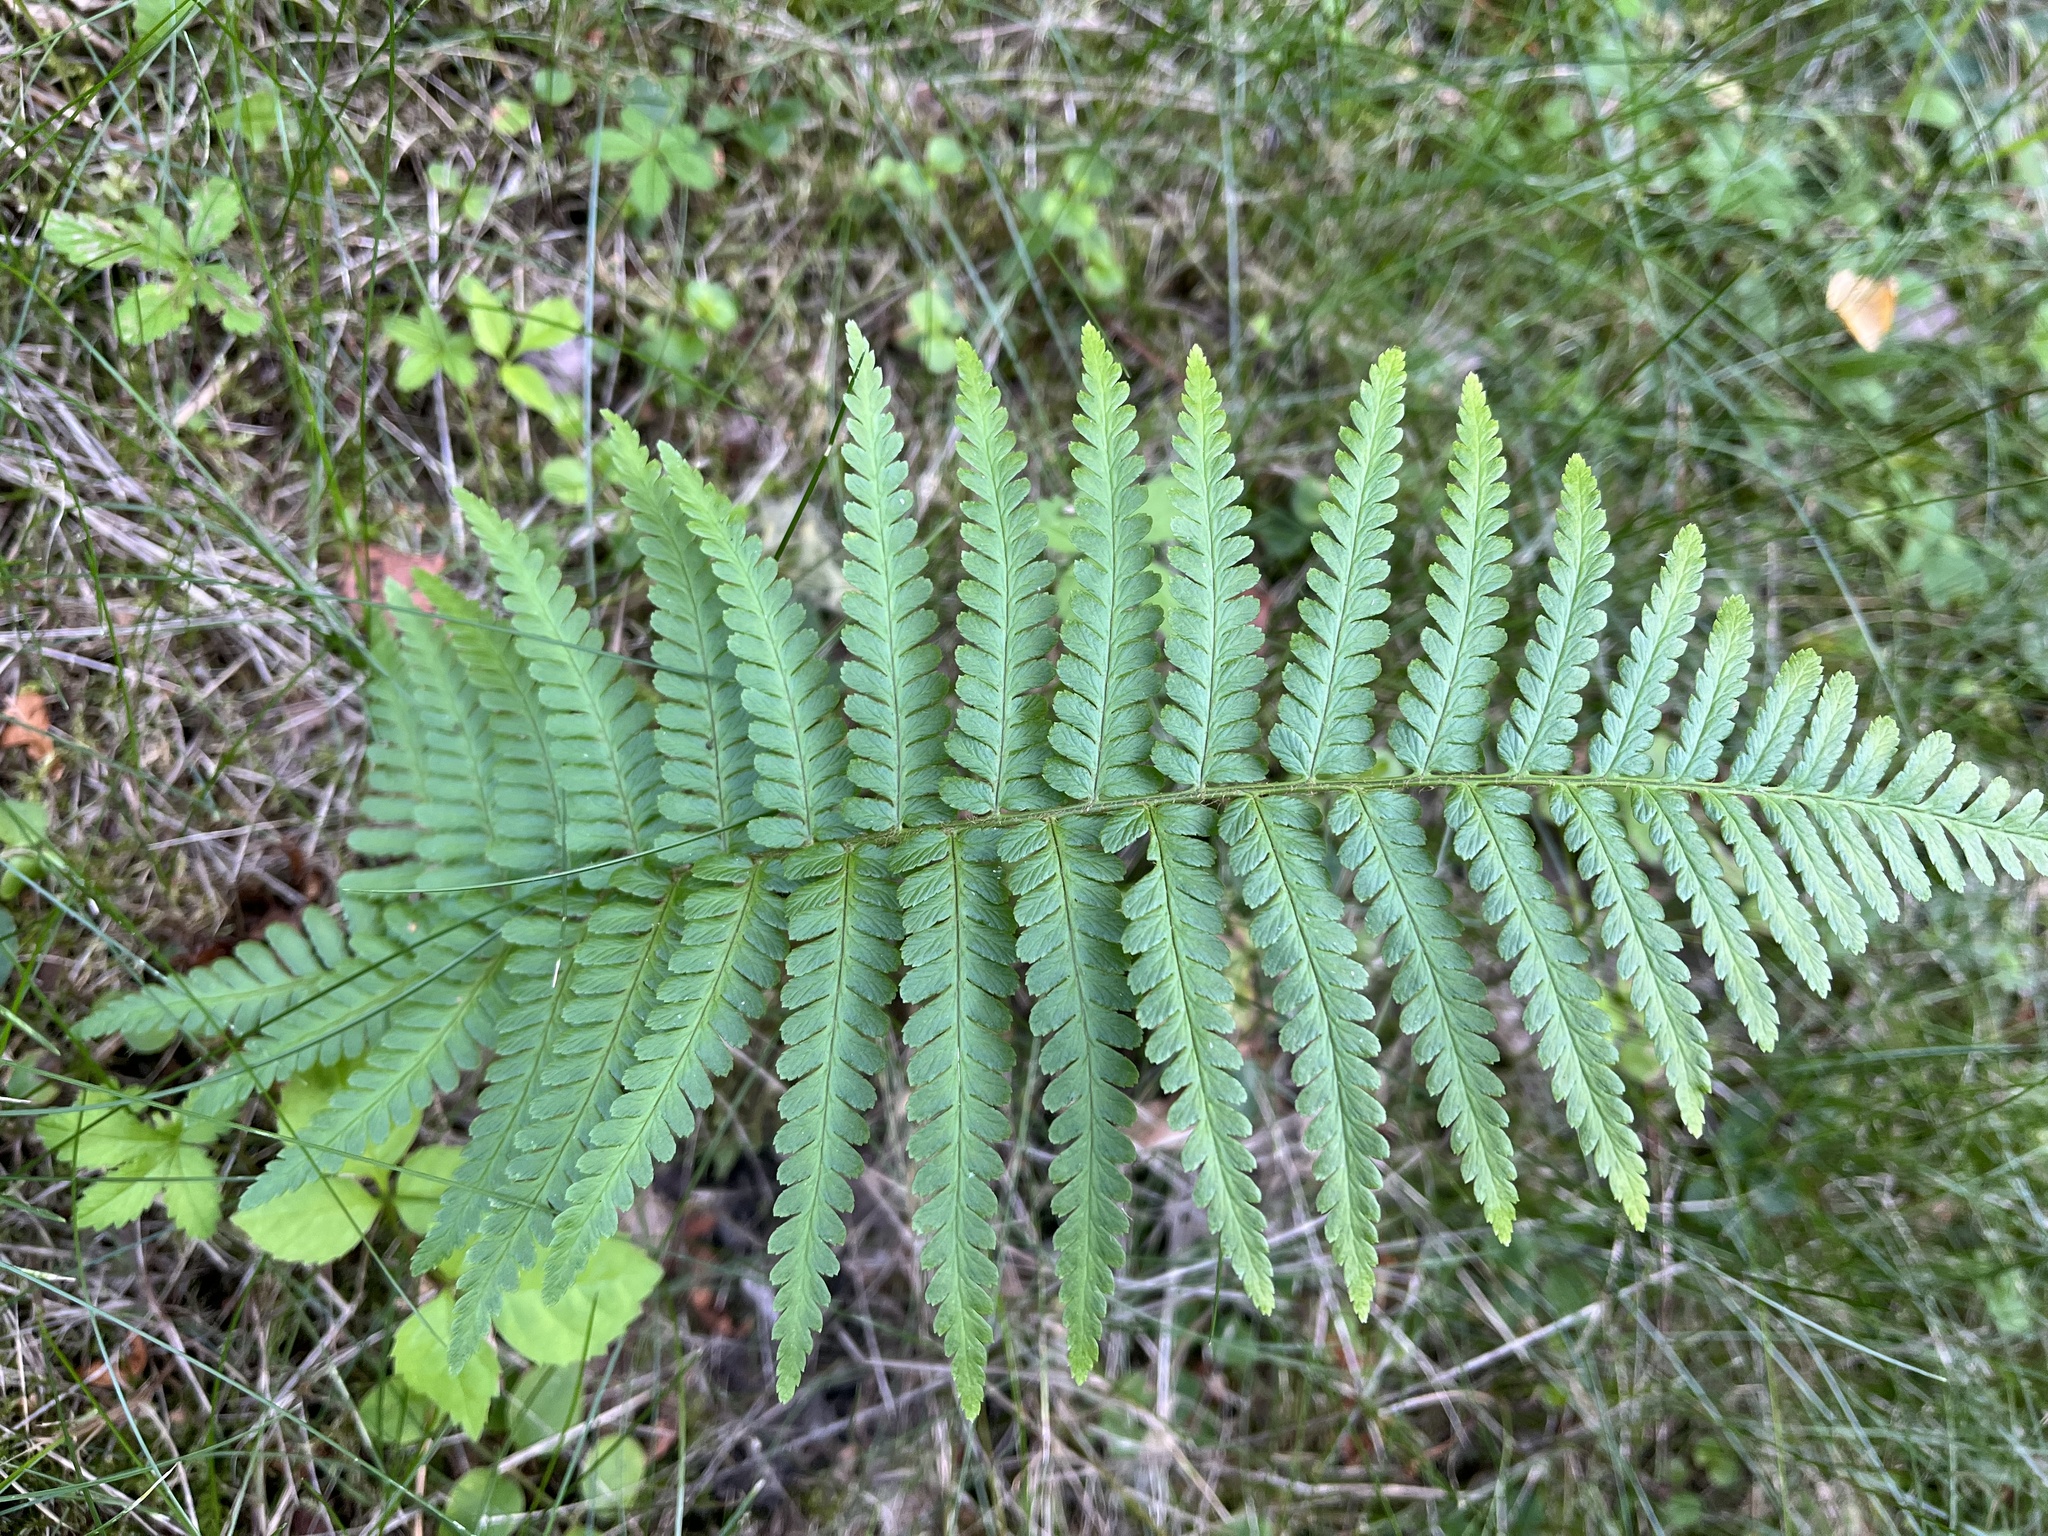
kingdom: Plantae
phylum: Tracheophyta
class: Polypodiopsida
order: Polypodiales
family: Dryopteridaceae
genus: Dryopteris
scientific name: Dryopteris filix-mas
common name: Male fern
